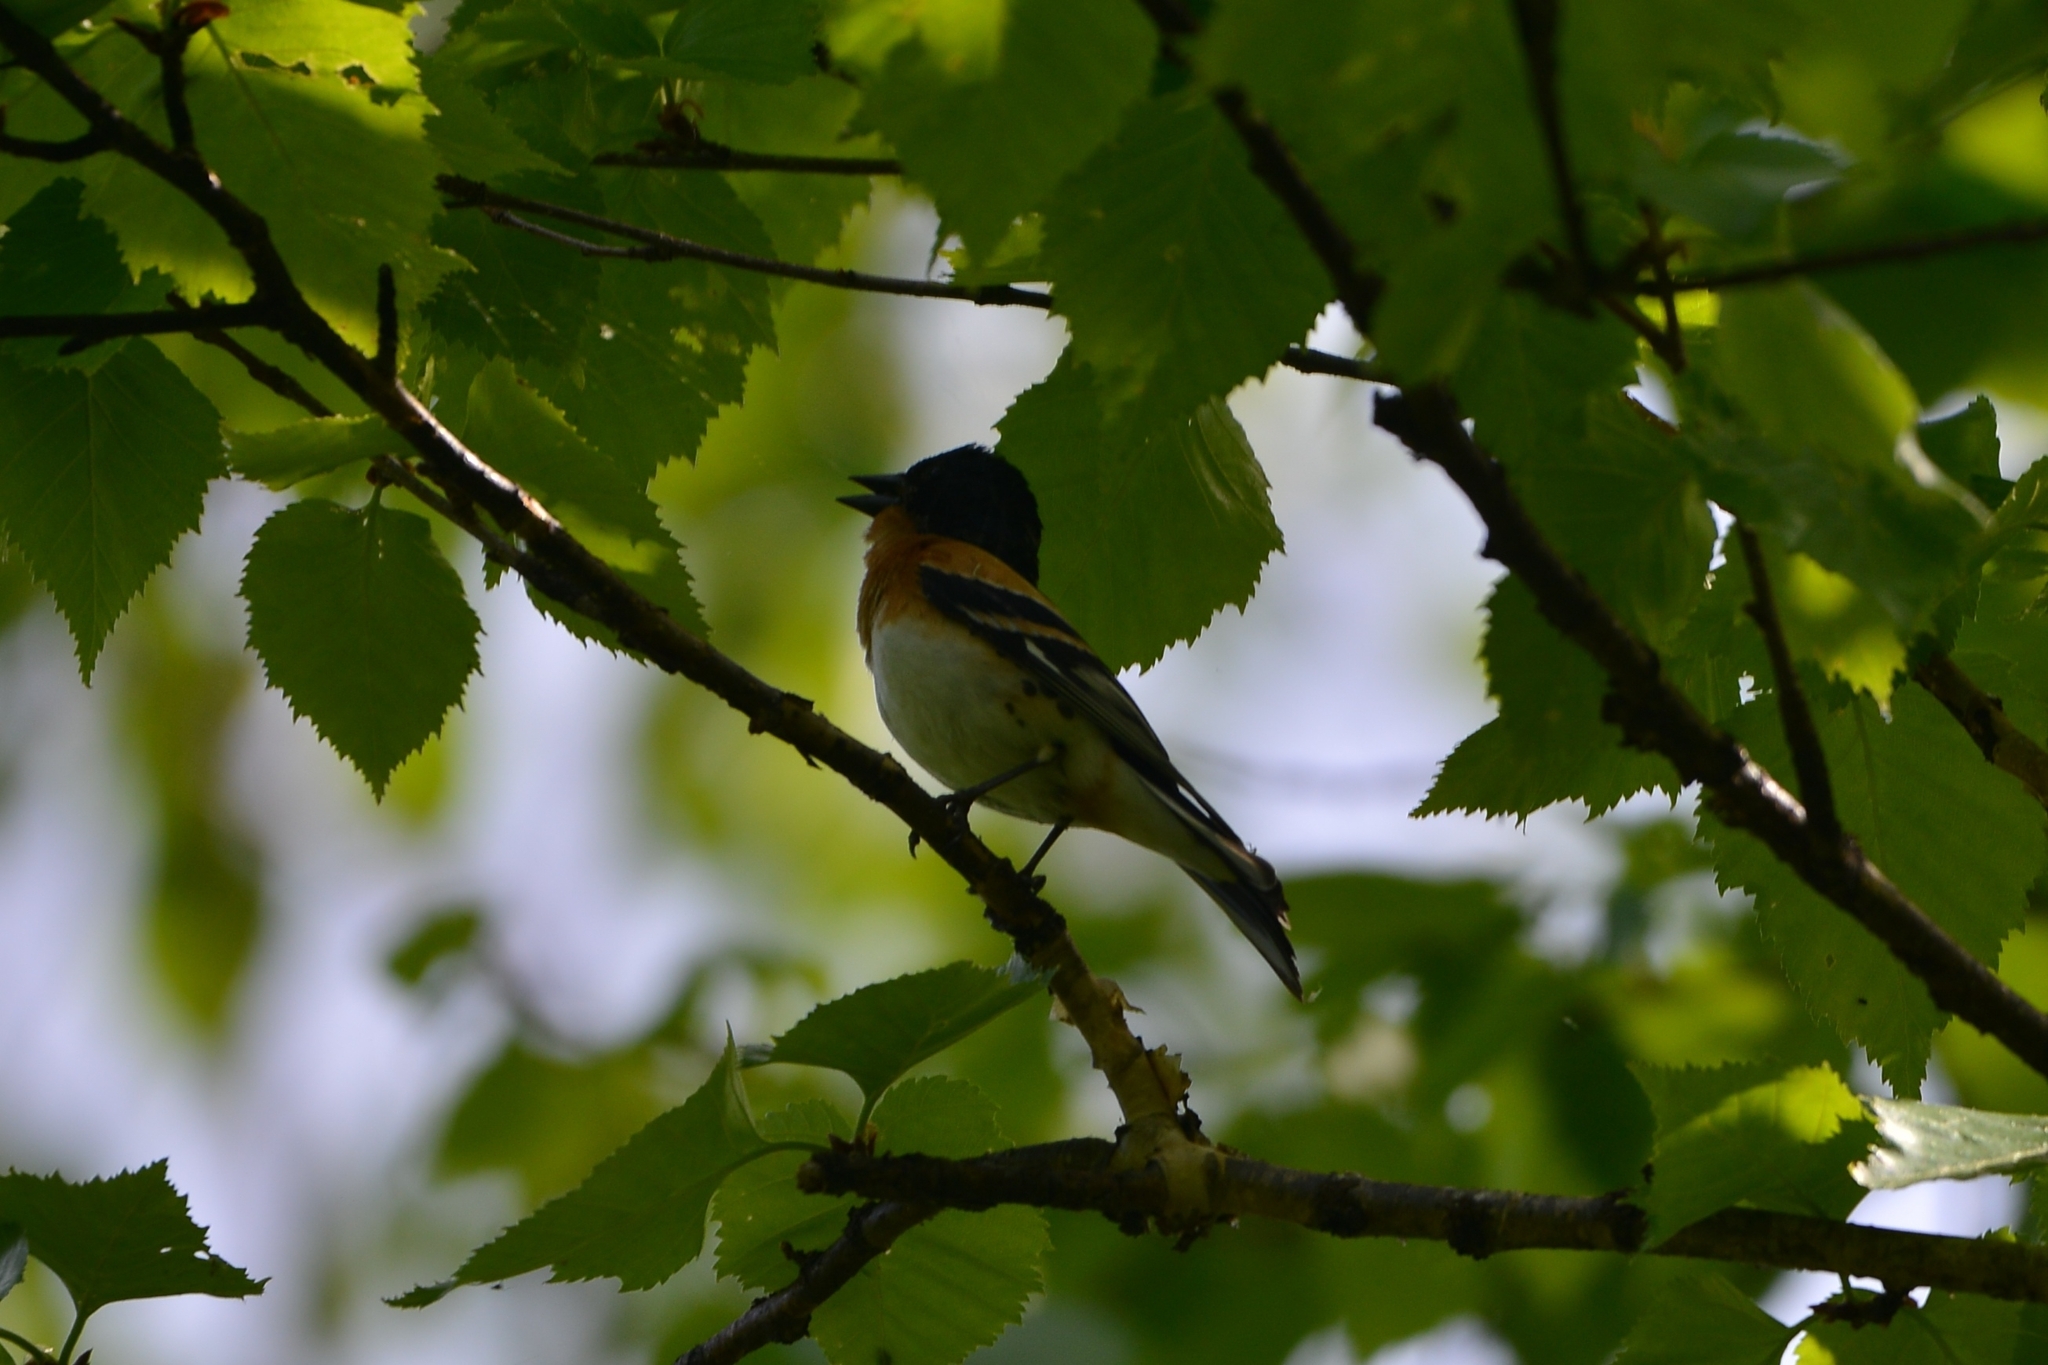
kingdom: Animalia
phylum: Chordata
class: Aves
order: Passeriformes
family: Fringillidae
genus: Fringilla
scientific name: Fringilla montifringilla
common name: Brambling
